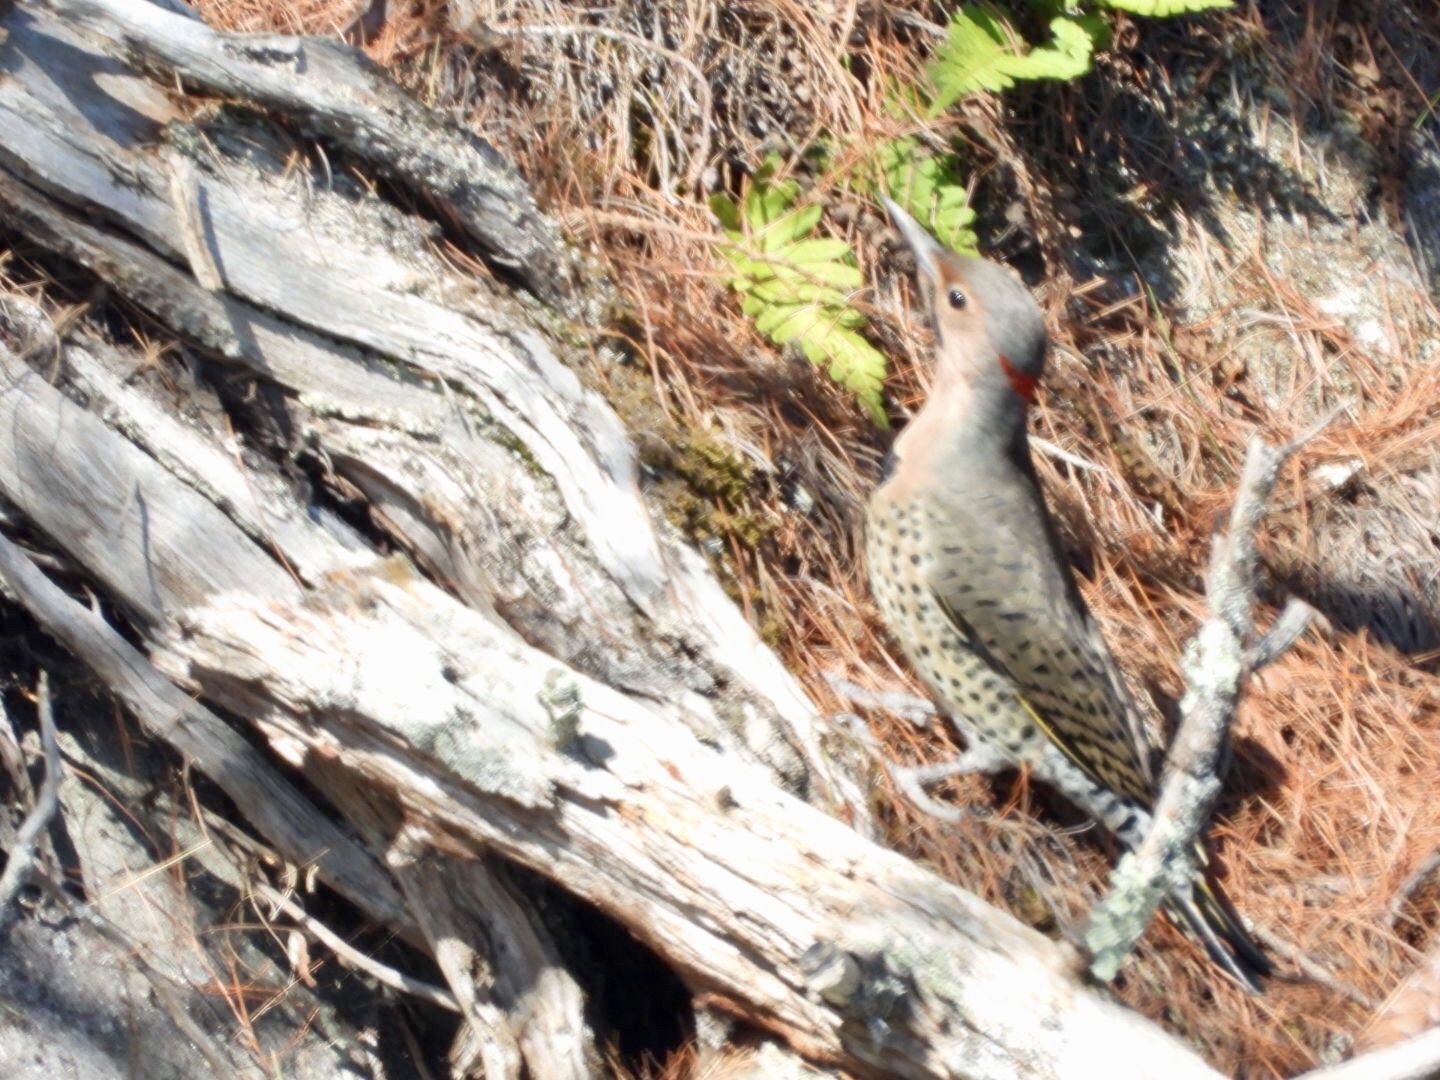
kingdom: Animalia
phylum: Chordata
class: Aves
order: Piciformes
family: Picidae
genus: Colaptes
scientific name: Colaptes auratus
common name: Northern flicker
